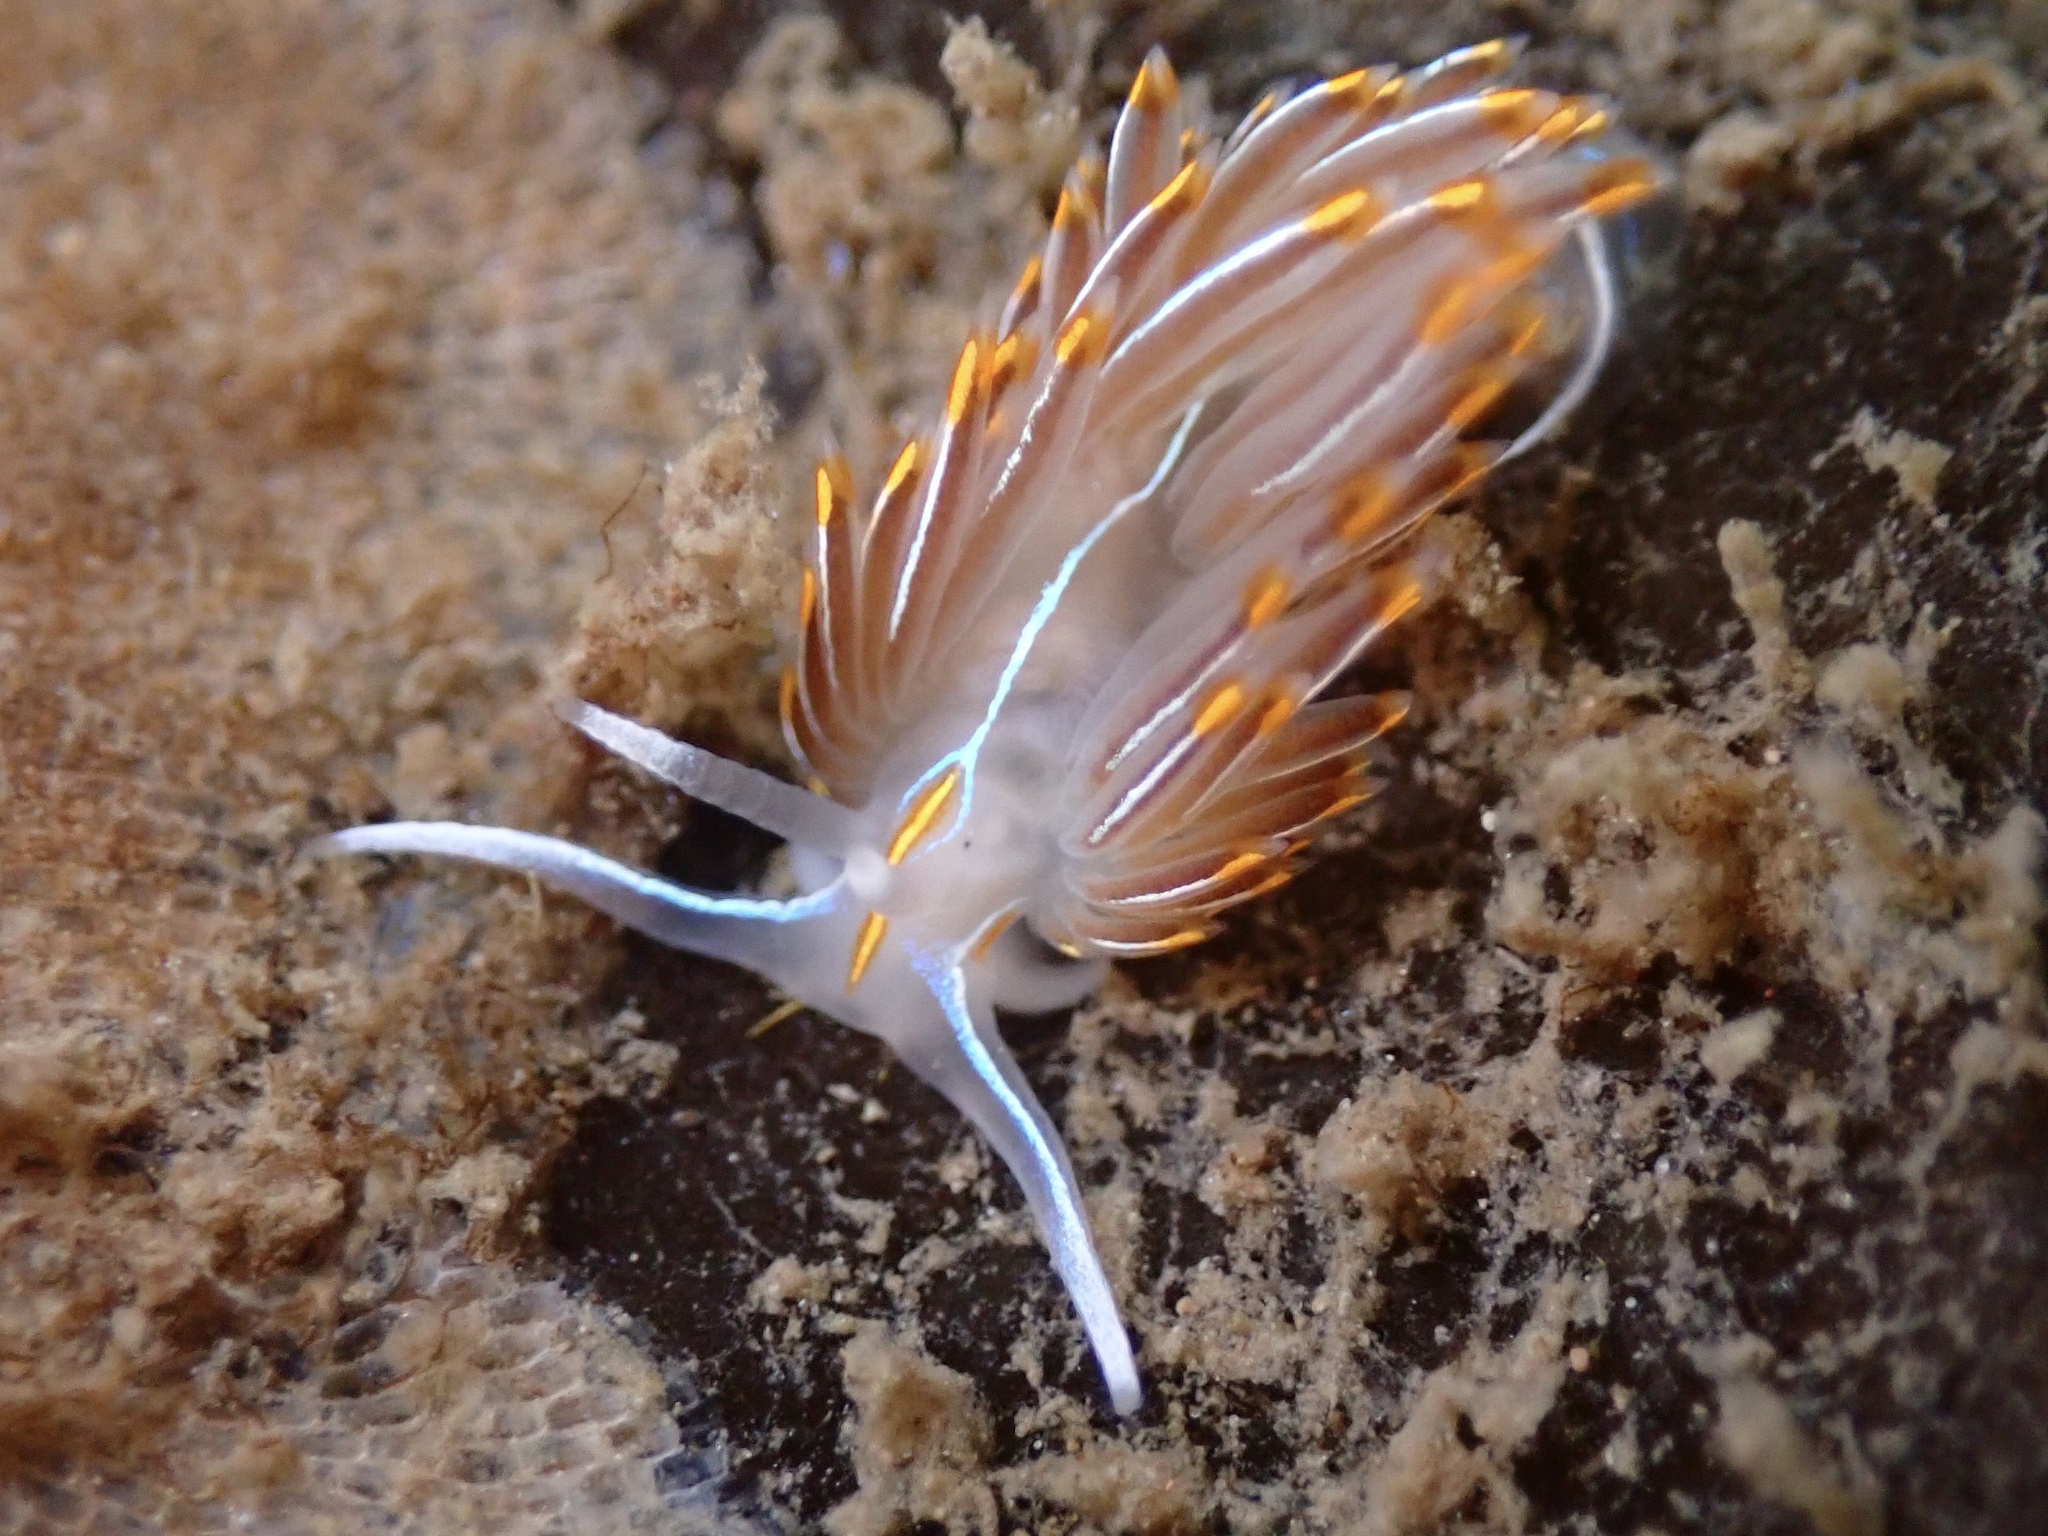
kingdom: Animalia
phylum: Mollusca
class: Gastropoda
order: Nudibranchia
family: Myrrhinidae
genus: Hermissenda
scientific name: Hermissenda crassicornis
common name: Hermissenda
